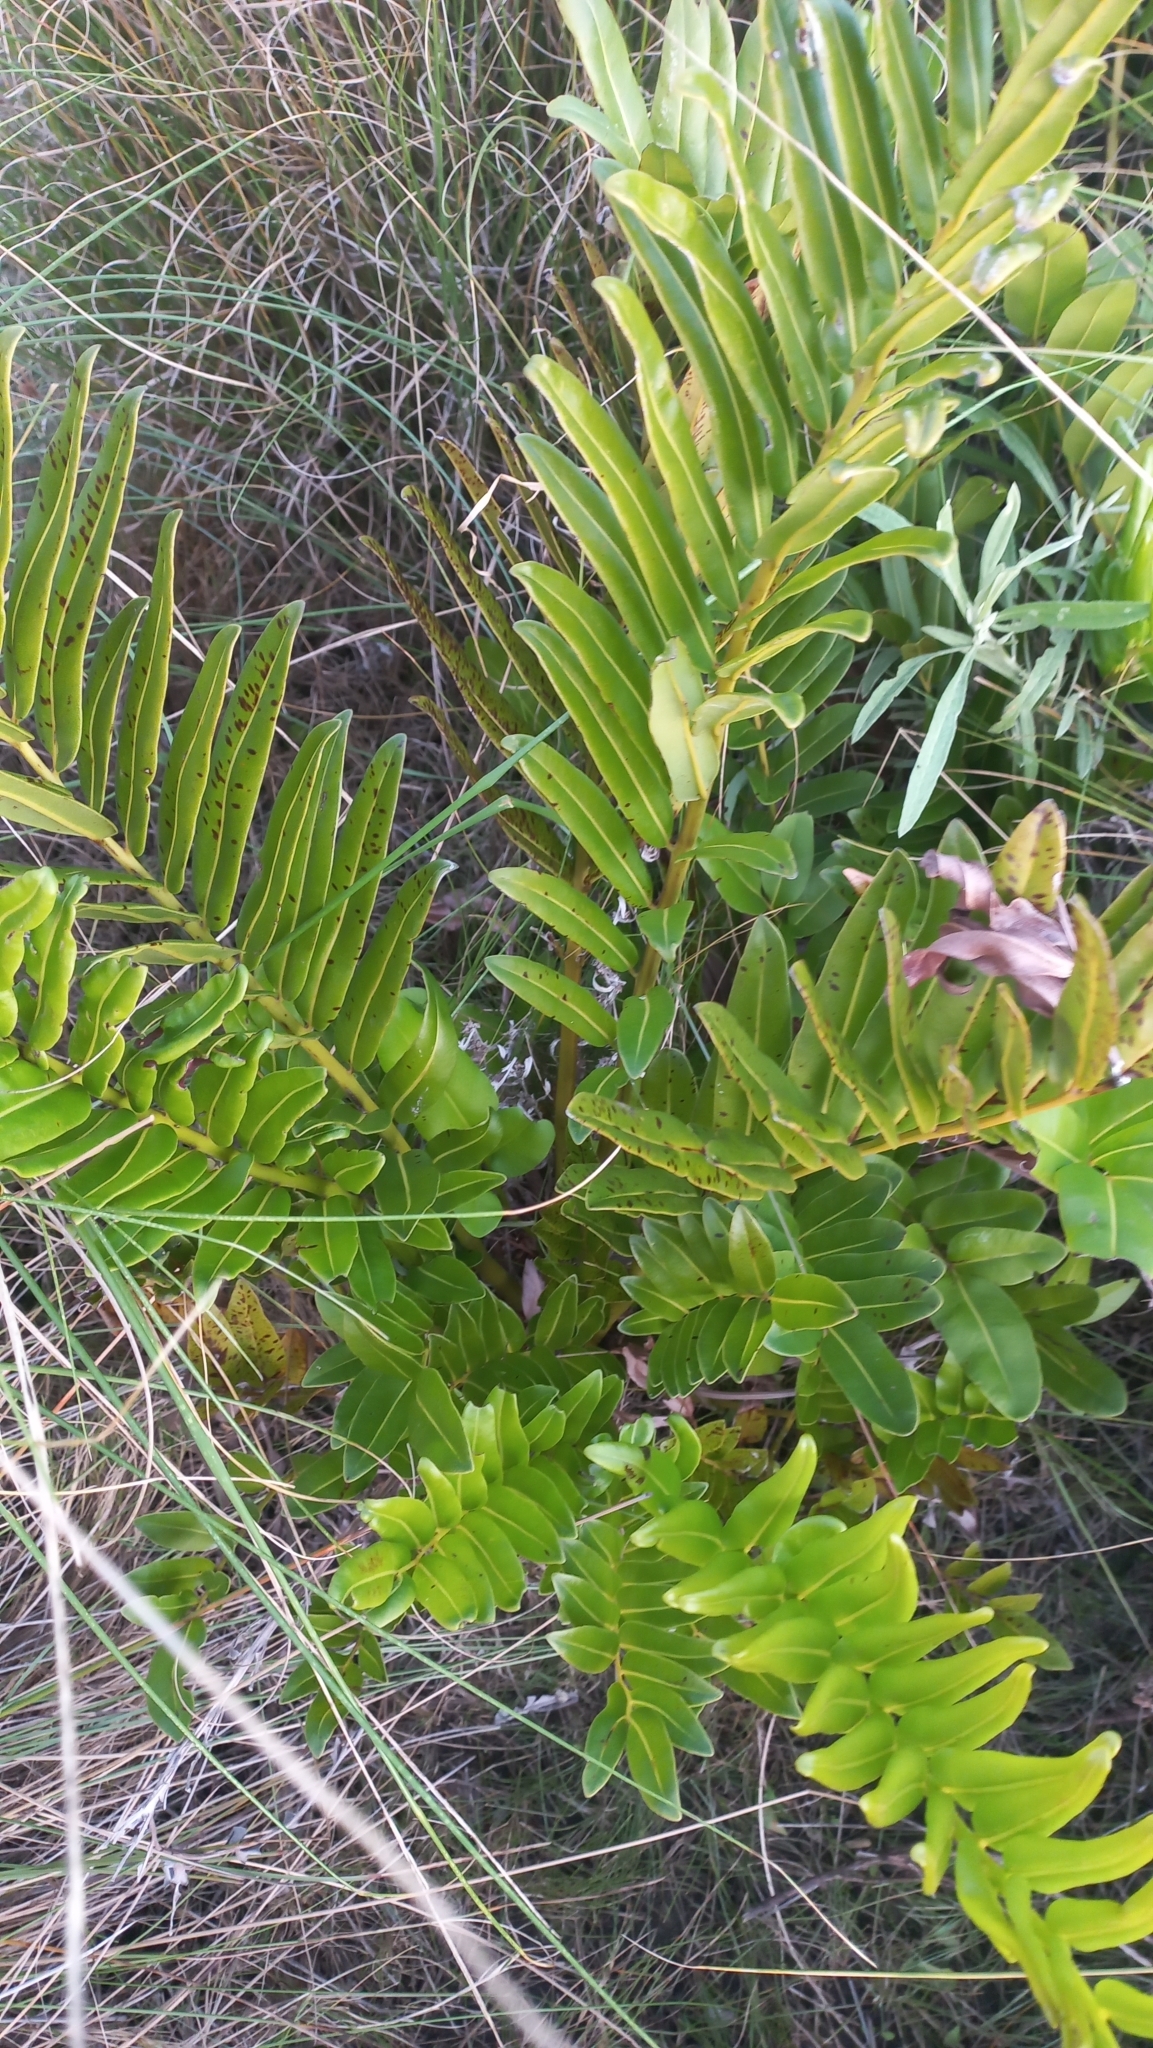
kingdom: Plantae
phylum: Tracheophyta
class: Polypodiopsida
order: Polypodiales
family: Pteridaceae
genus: Acrostichum
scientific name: Acrostichum danaeifolium
